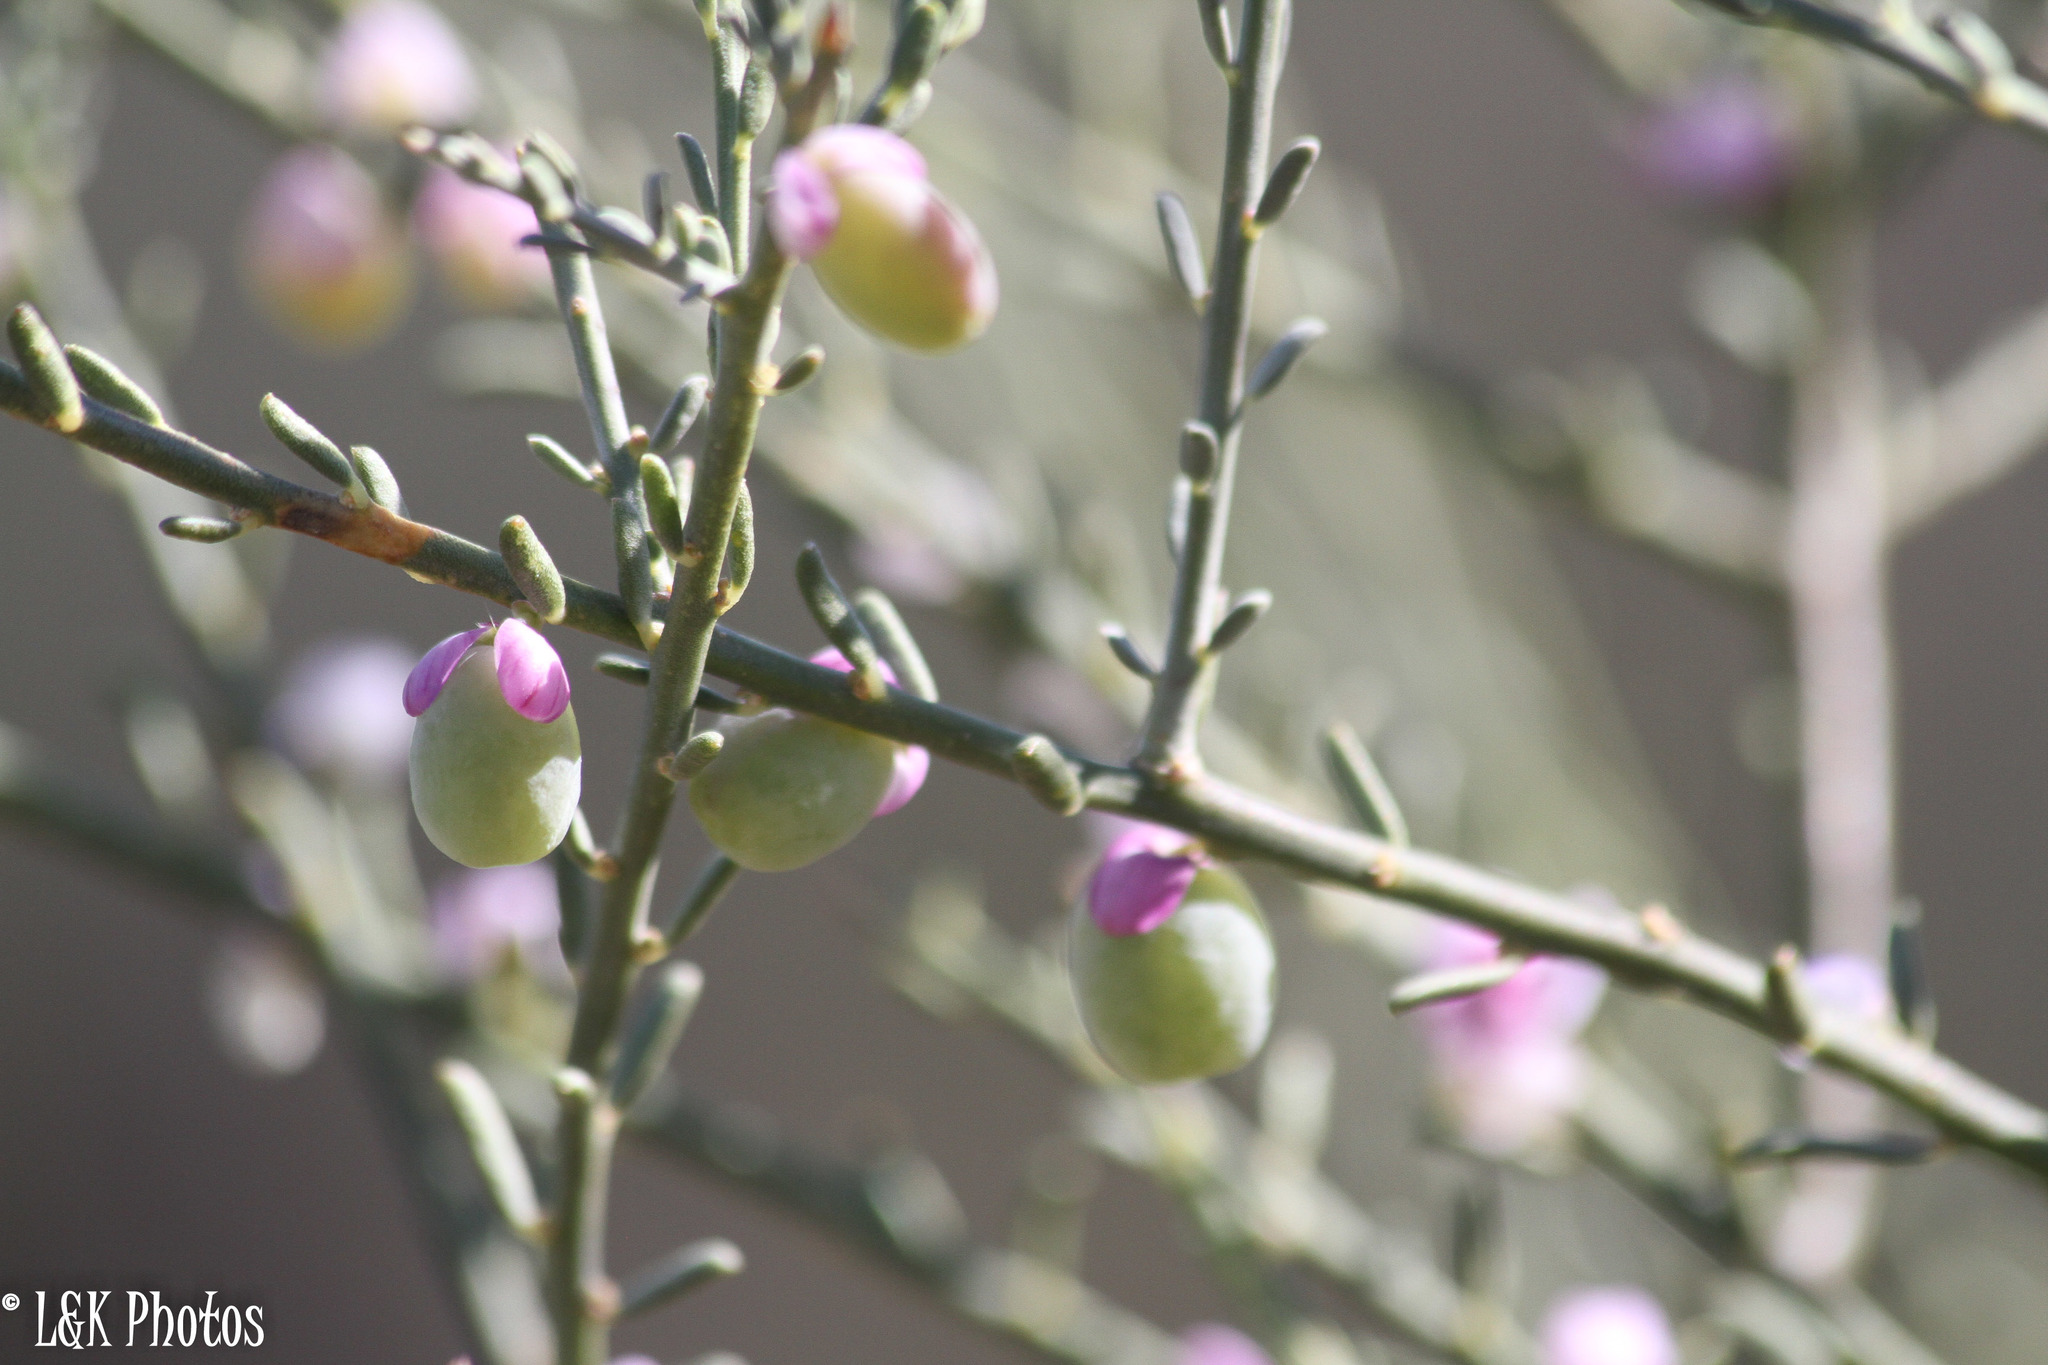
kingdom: Plantae
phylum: Tracheophyta
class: Magnoliopsida
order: Fabales
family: Polygalaceae
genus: Muraltia
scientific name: Muraltia spinosa
